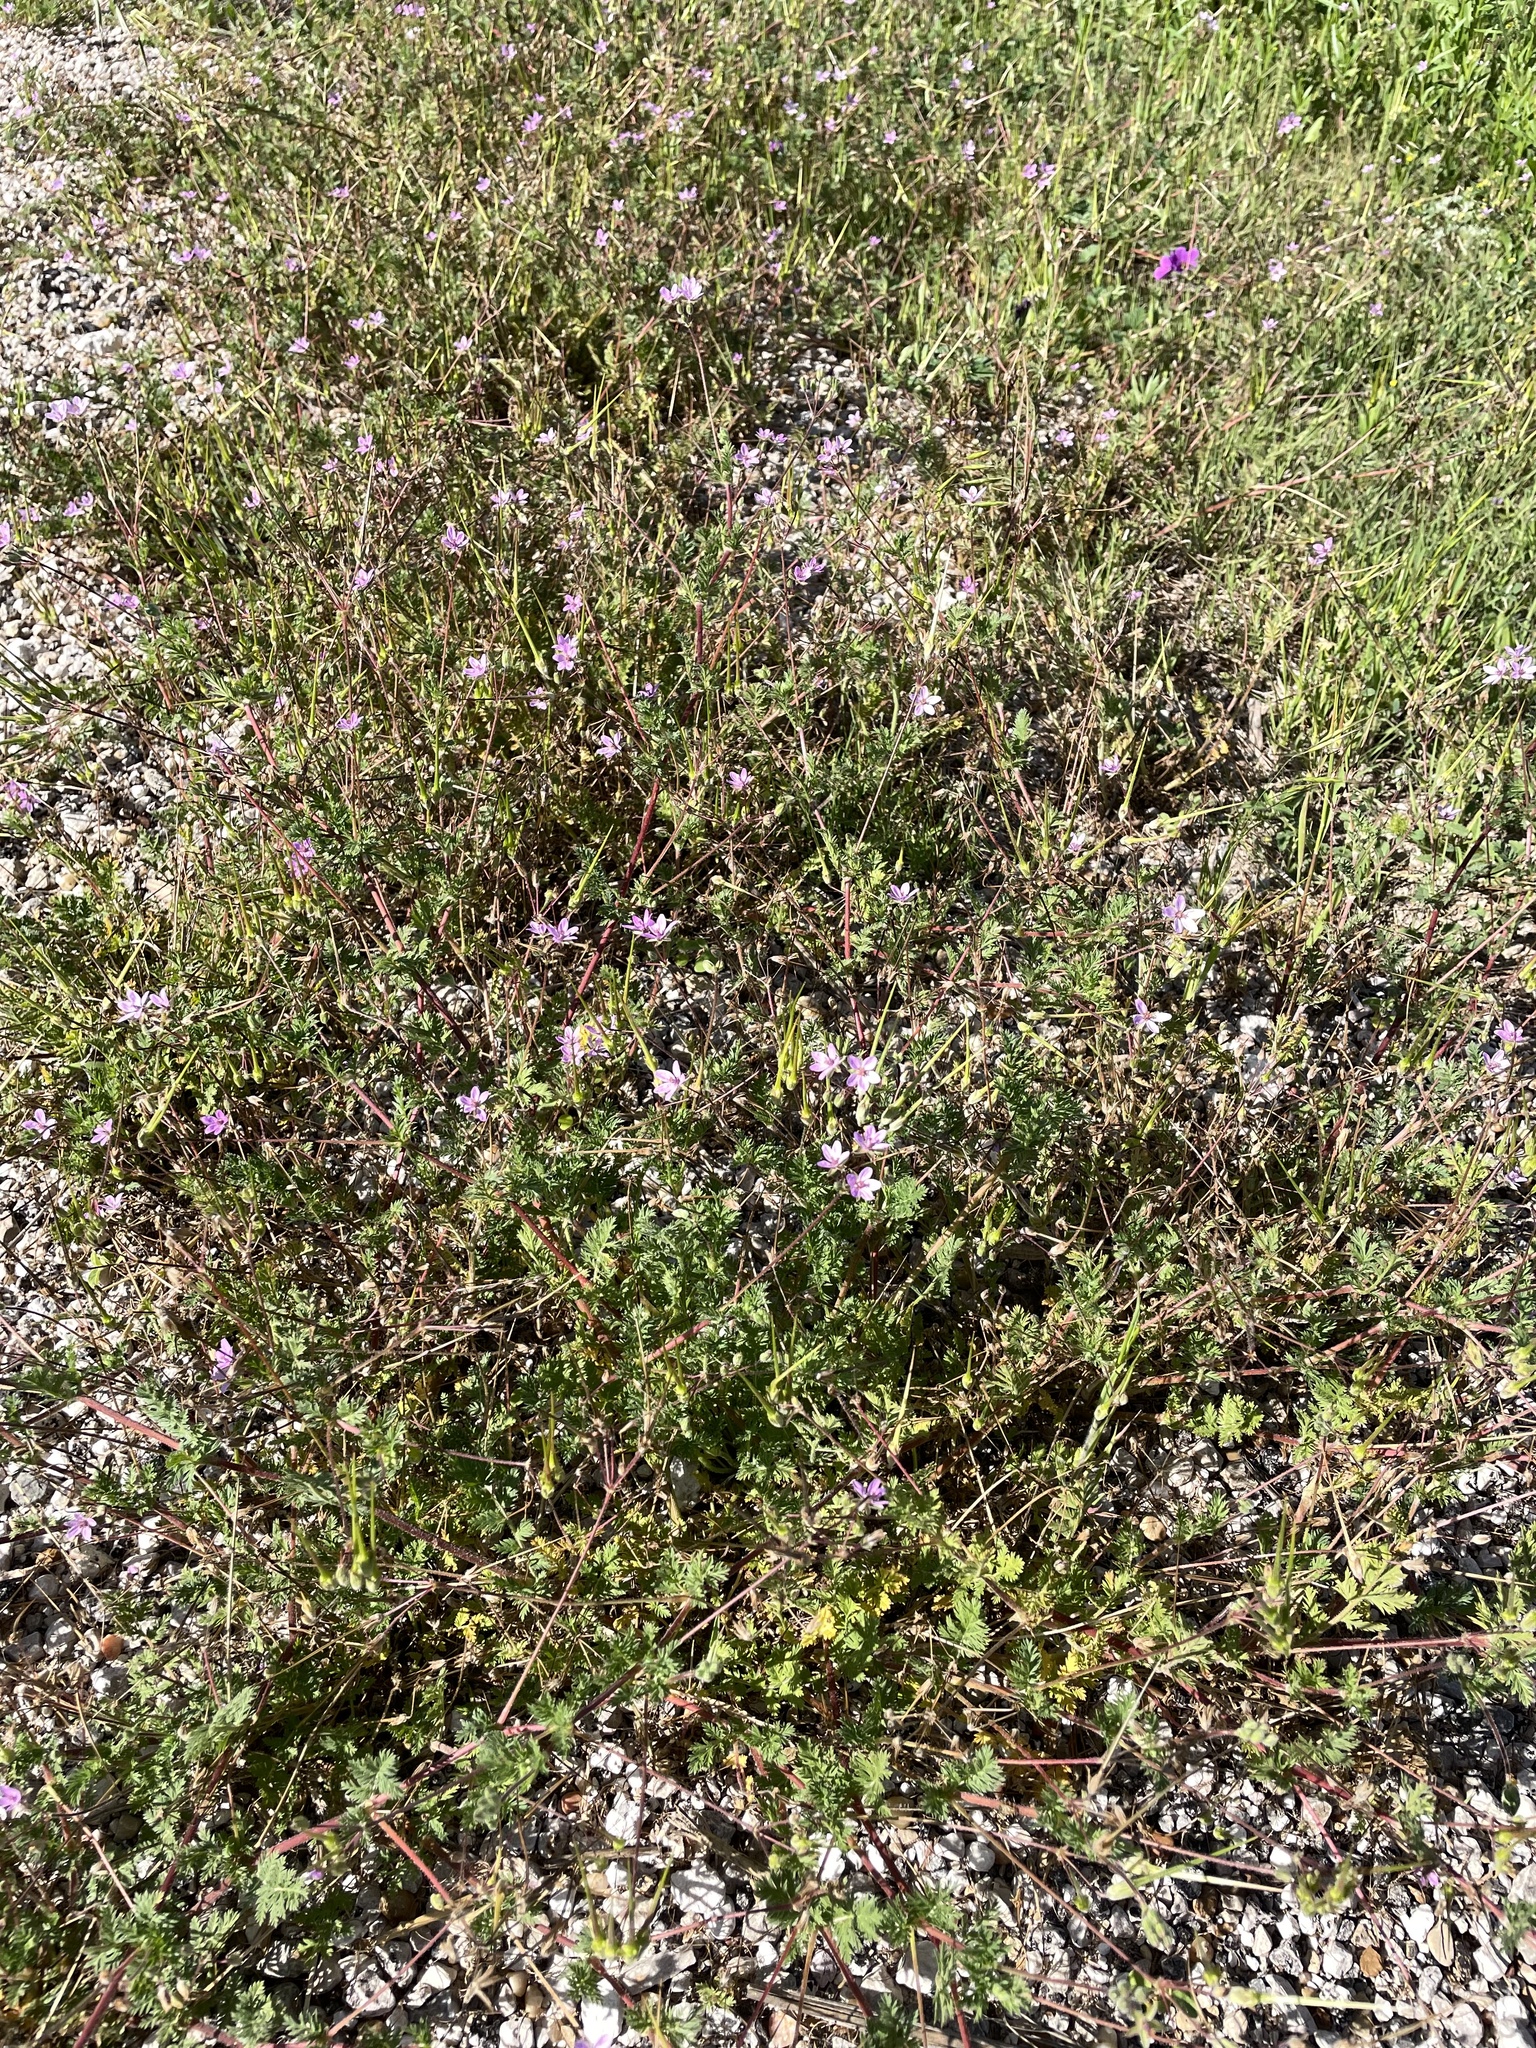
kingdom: Plantae
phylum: Tracheophyta
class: Magnoliopsida
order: Geraniales
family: Geraniaceae
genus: Erodium
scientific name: Erodium cicutarium
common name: Common stork's-bill
